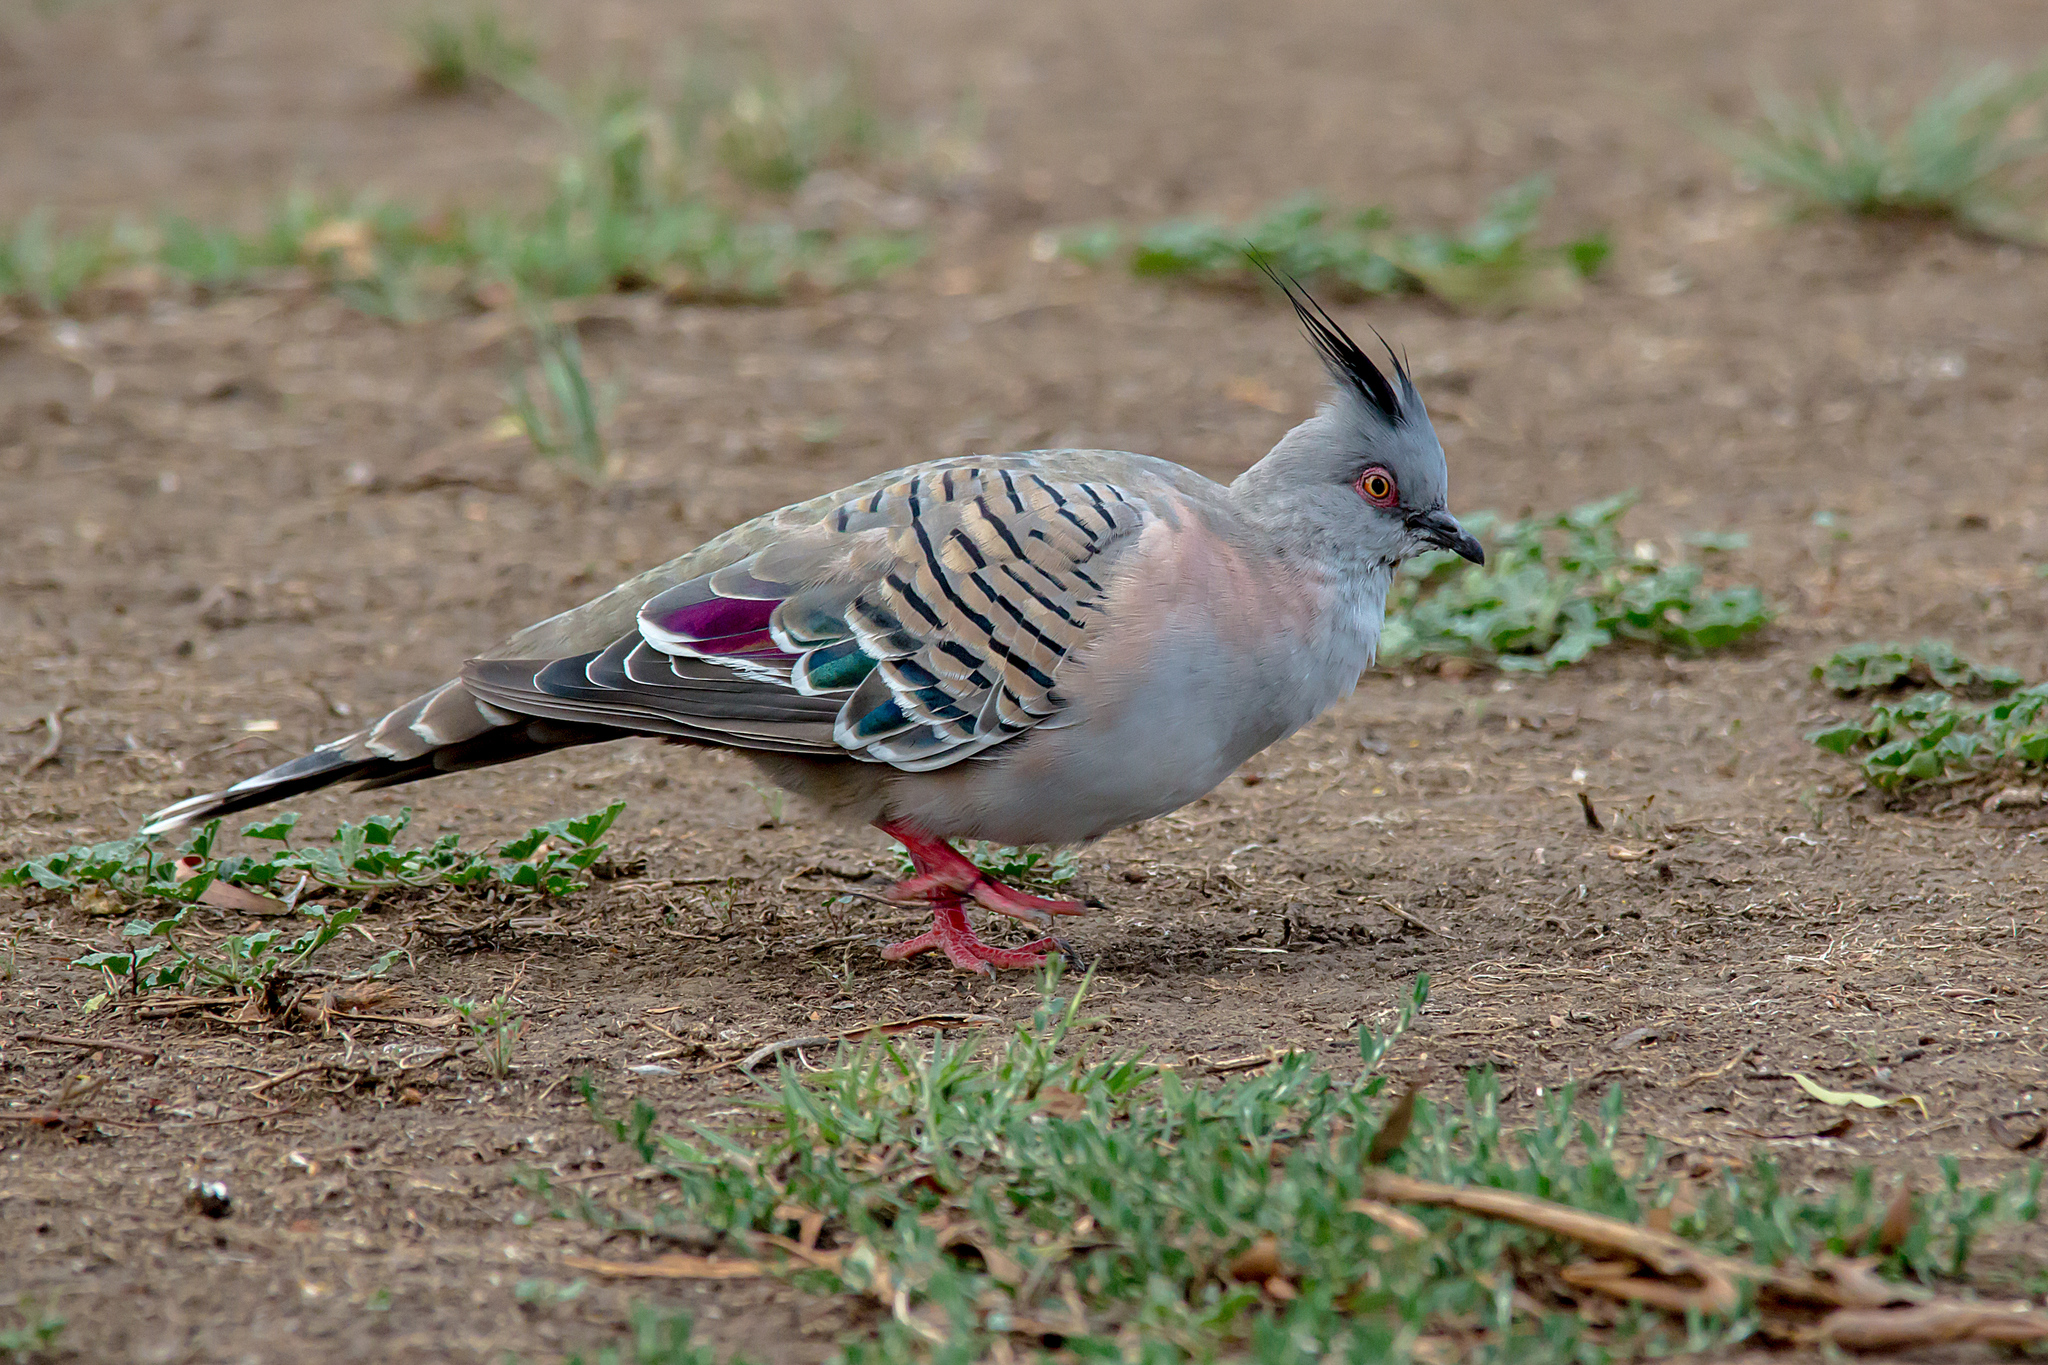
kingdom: Animalia
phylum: Chordata
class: Aves
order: Columbiformes
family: Columbidae
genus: Ocyphaps
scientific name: Ocyphaps lophotes
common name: Crested pigeon
